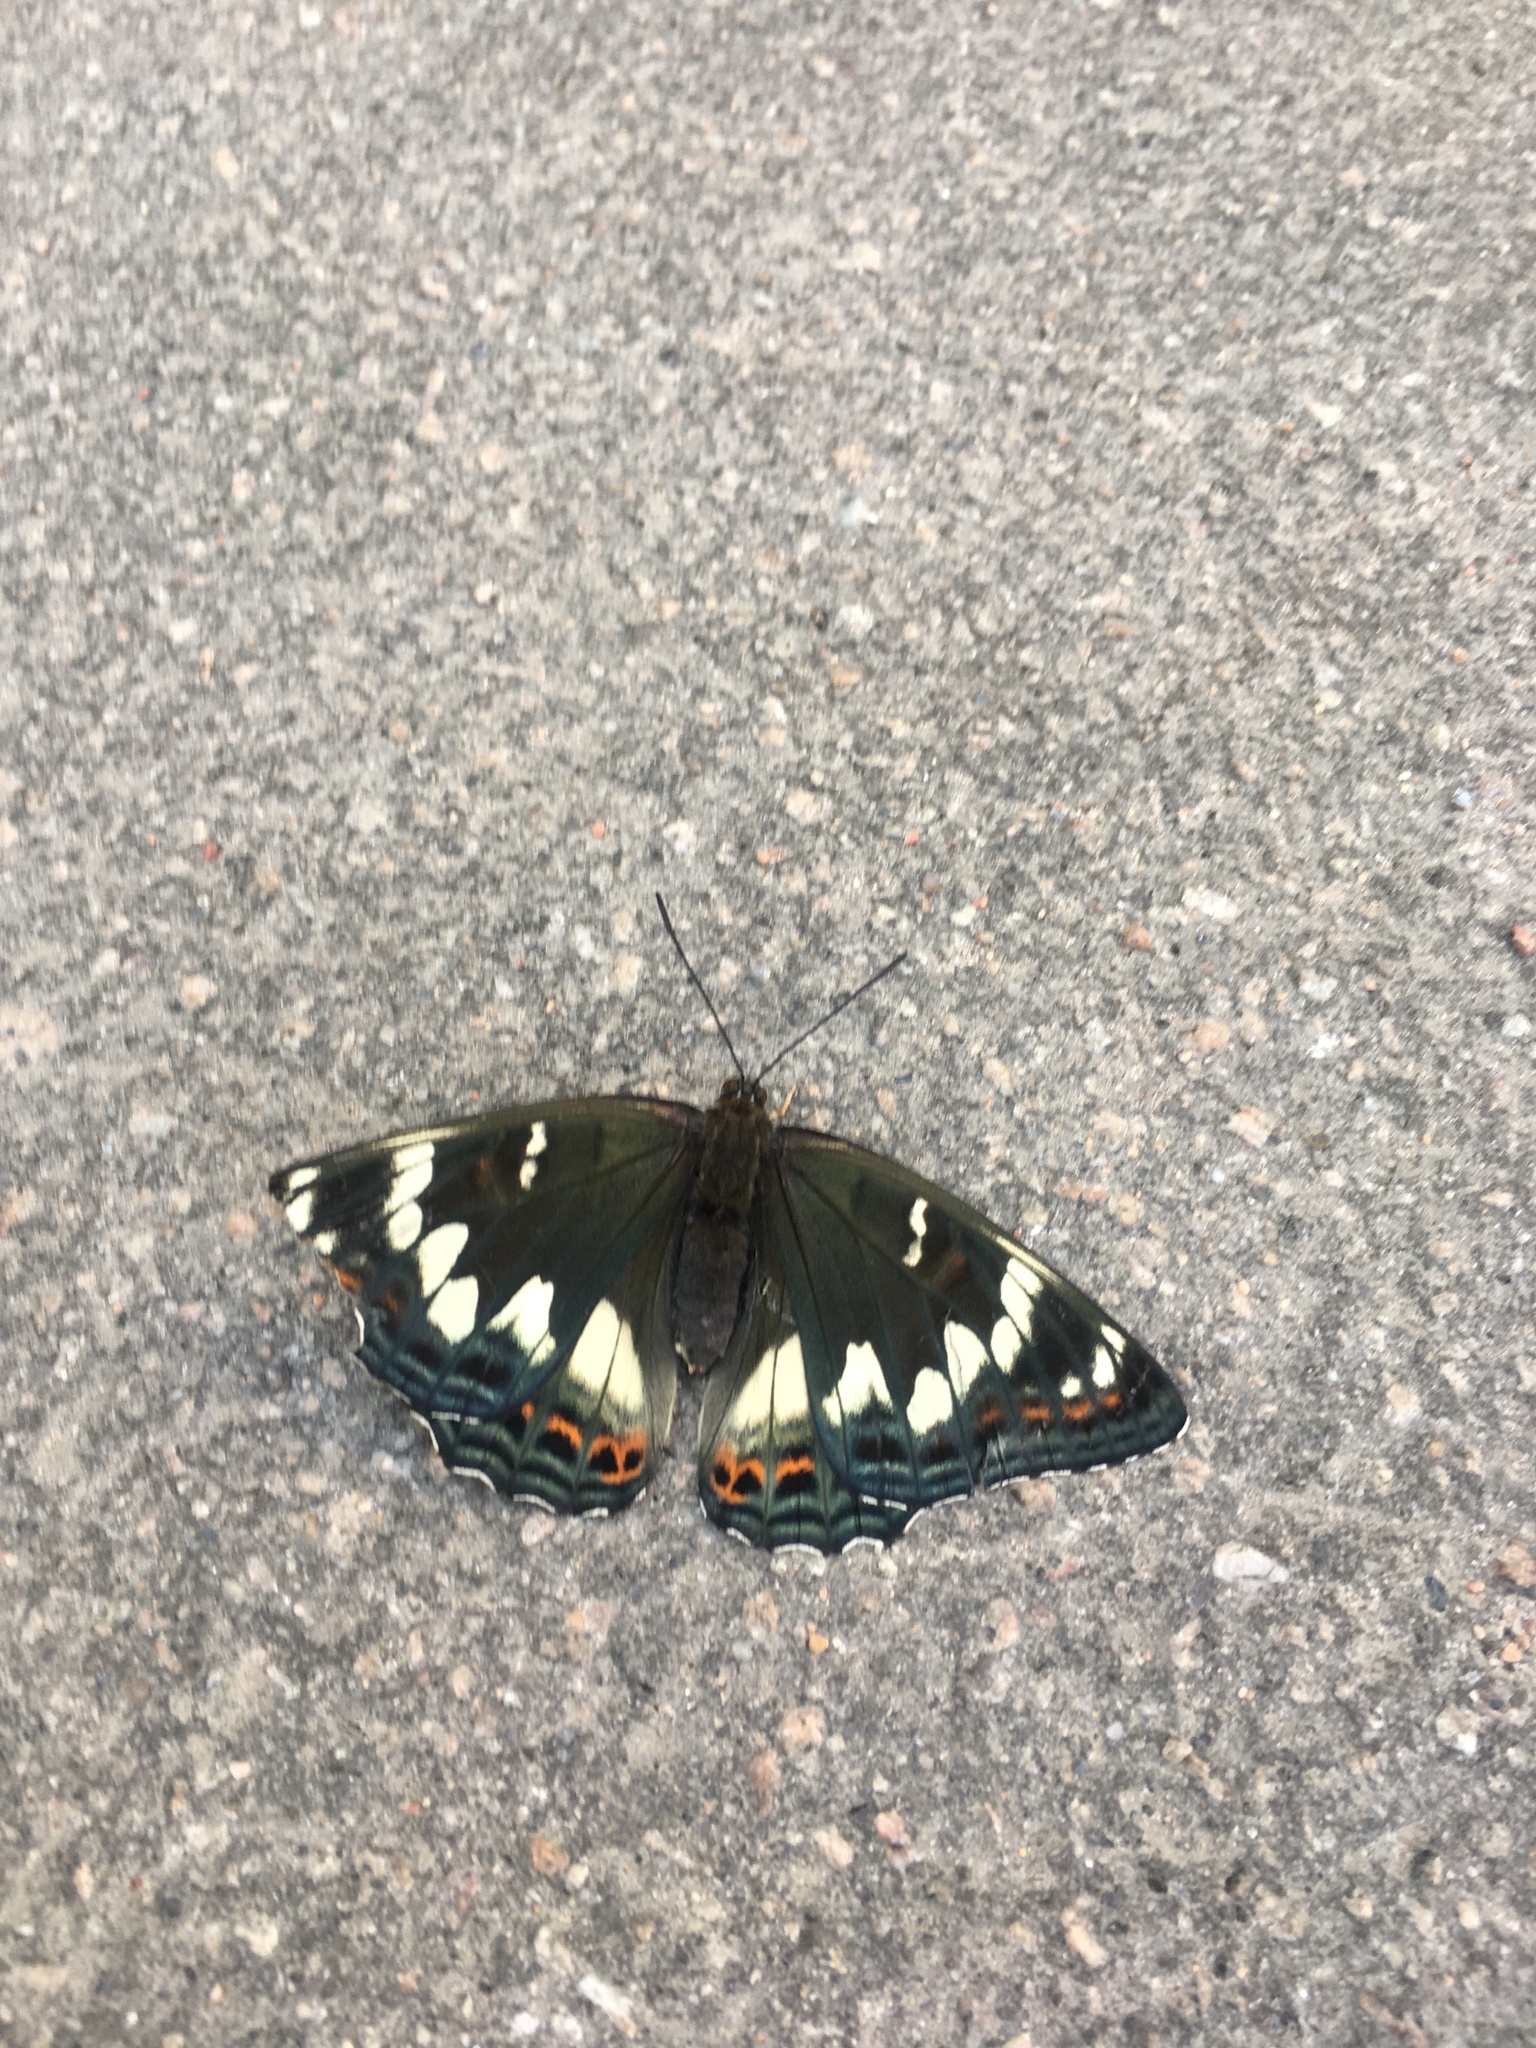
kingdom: Animalia
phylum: Arthropoda
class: Insecta
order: Lepidoptera
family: Nymphalidae
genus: Limenitis
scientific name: Limenitis populi
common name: Poplar admiral
